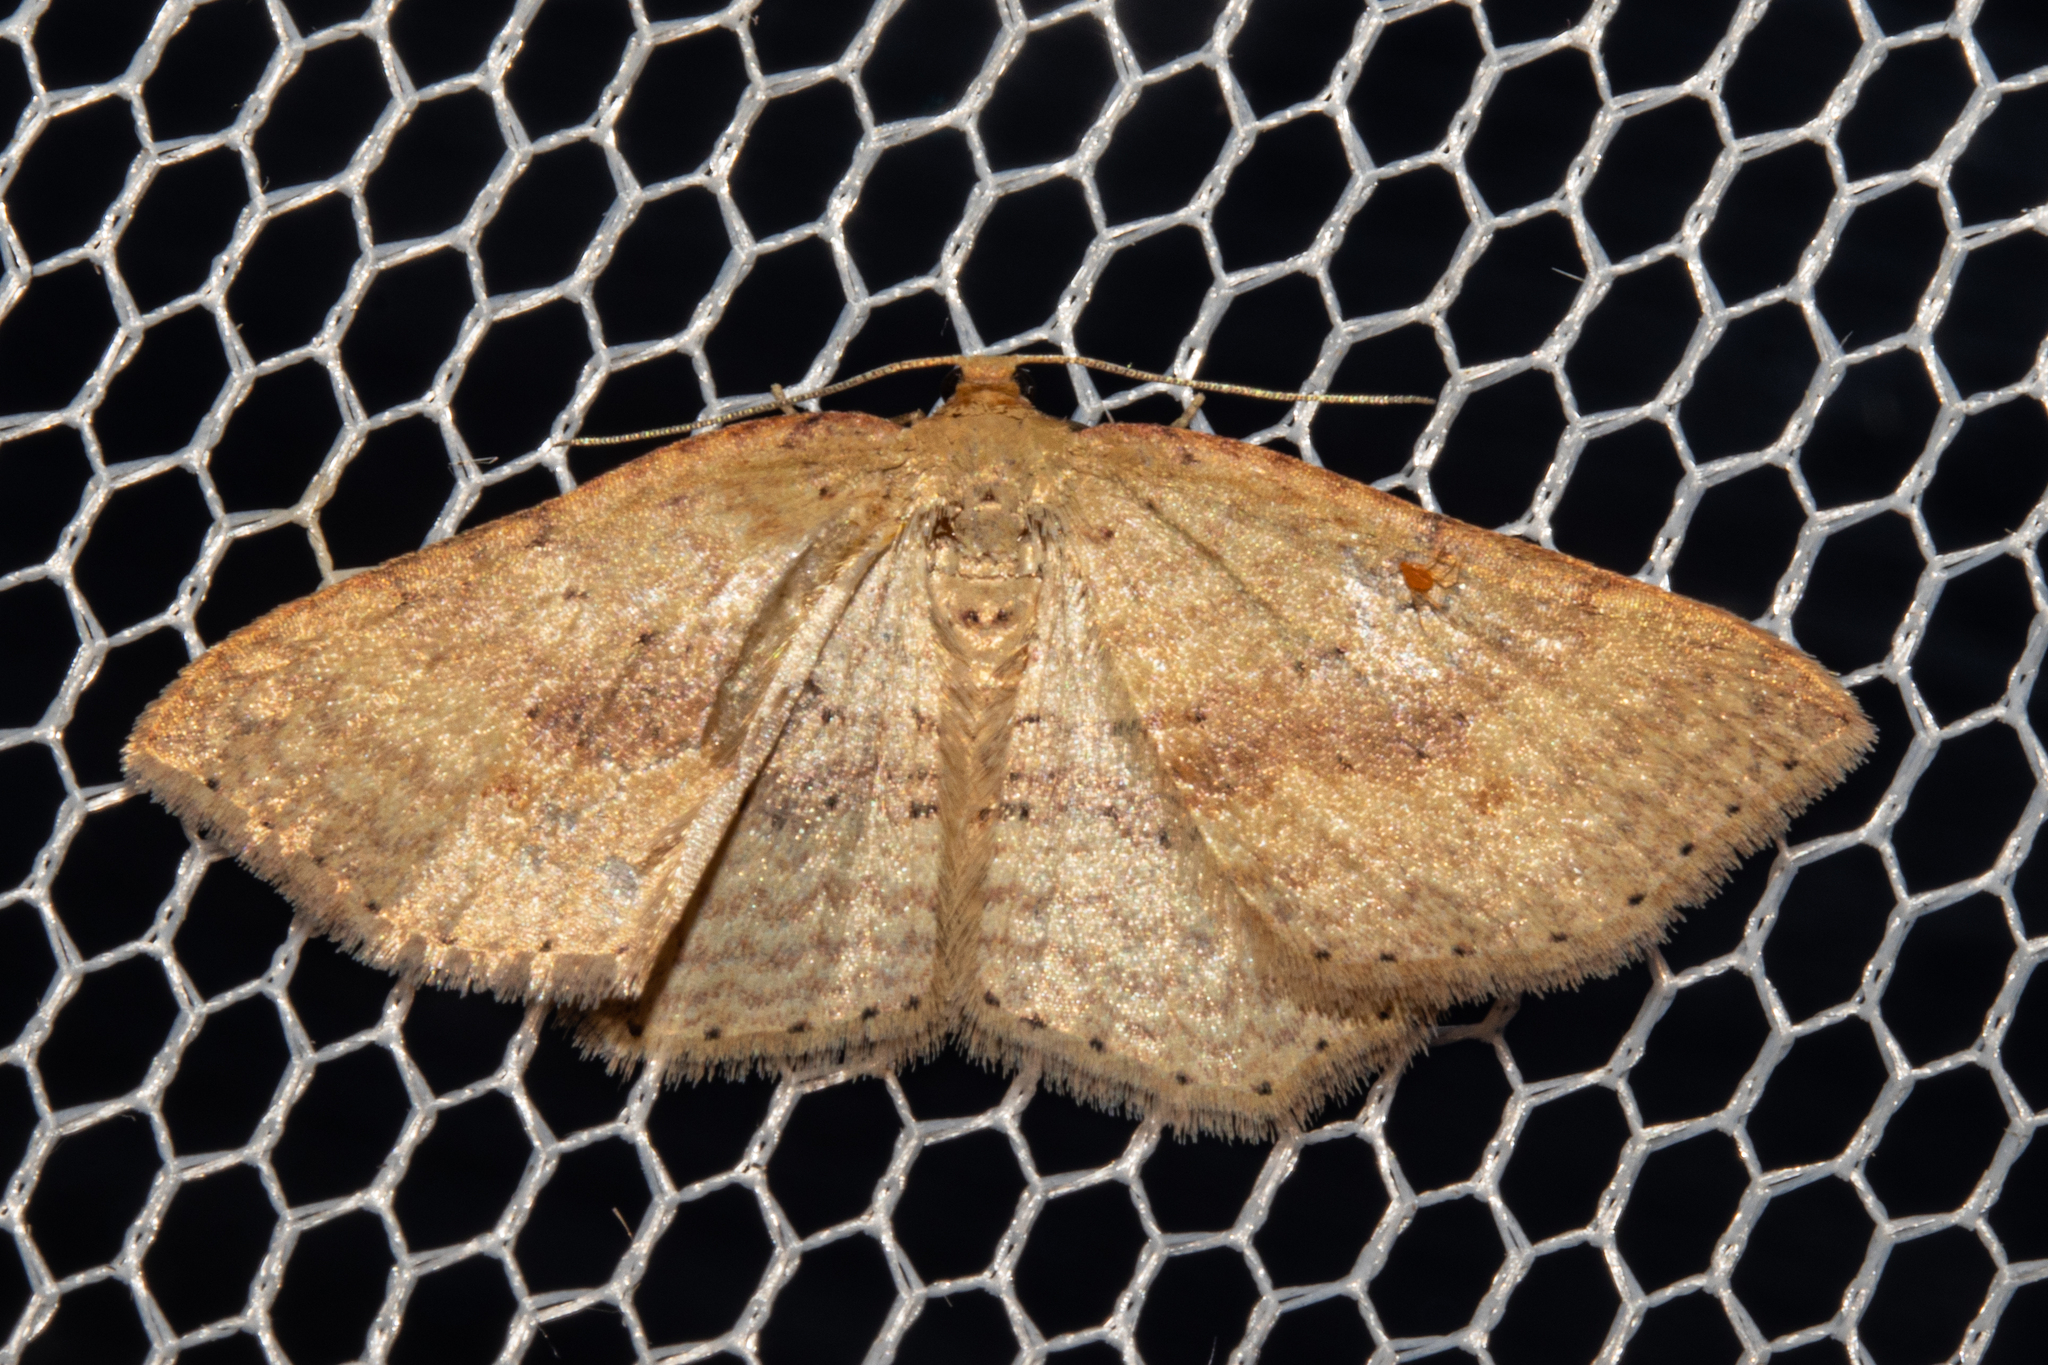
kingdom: Animalia
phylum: Arthropoda
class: Insecta
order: Lepidoptera
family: Geometridae
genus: Epicyme
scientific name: Epicyme rubropunctaria
